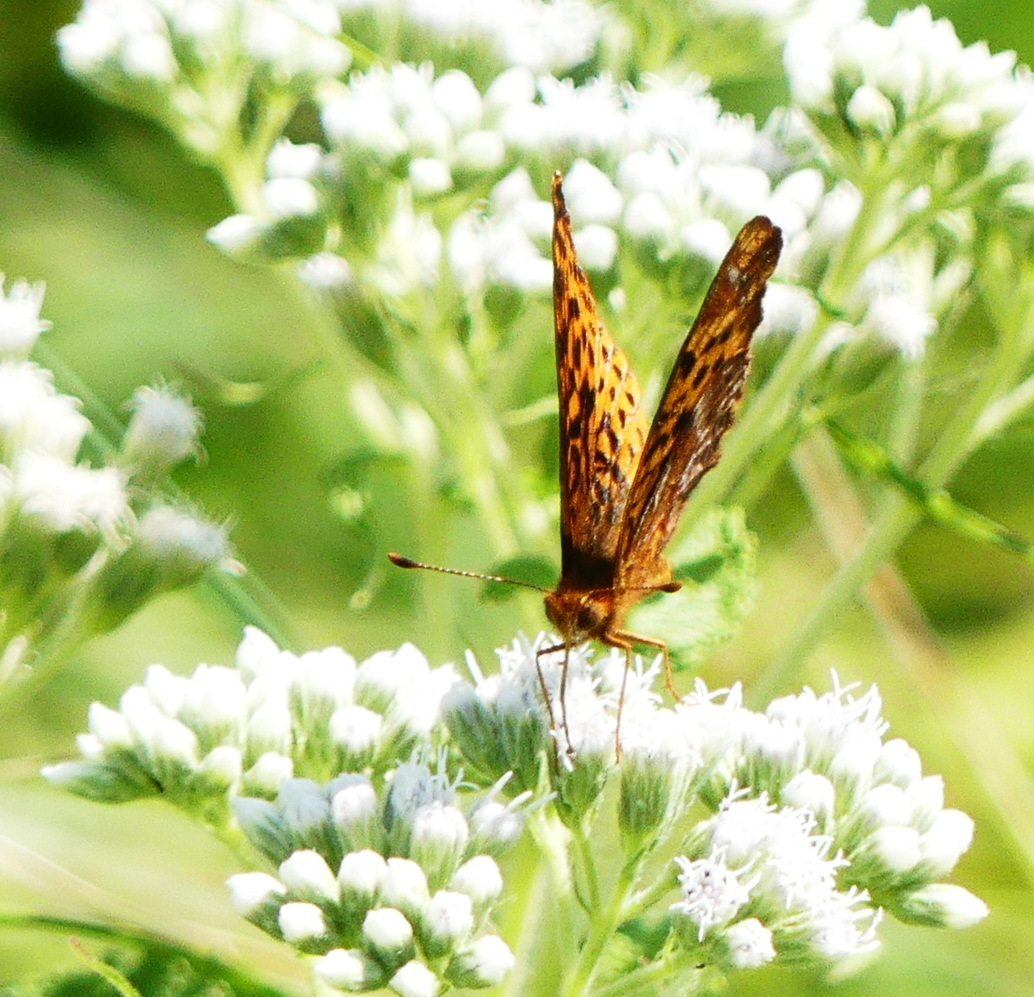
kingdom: Animalia
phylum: Arthropoda
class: Insecta
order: Lepidoptera
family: Nymphalidae
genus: Clossiana
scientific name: Clossiana toddi
